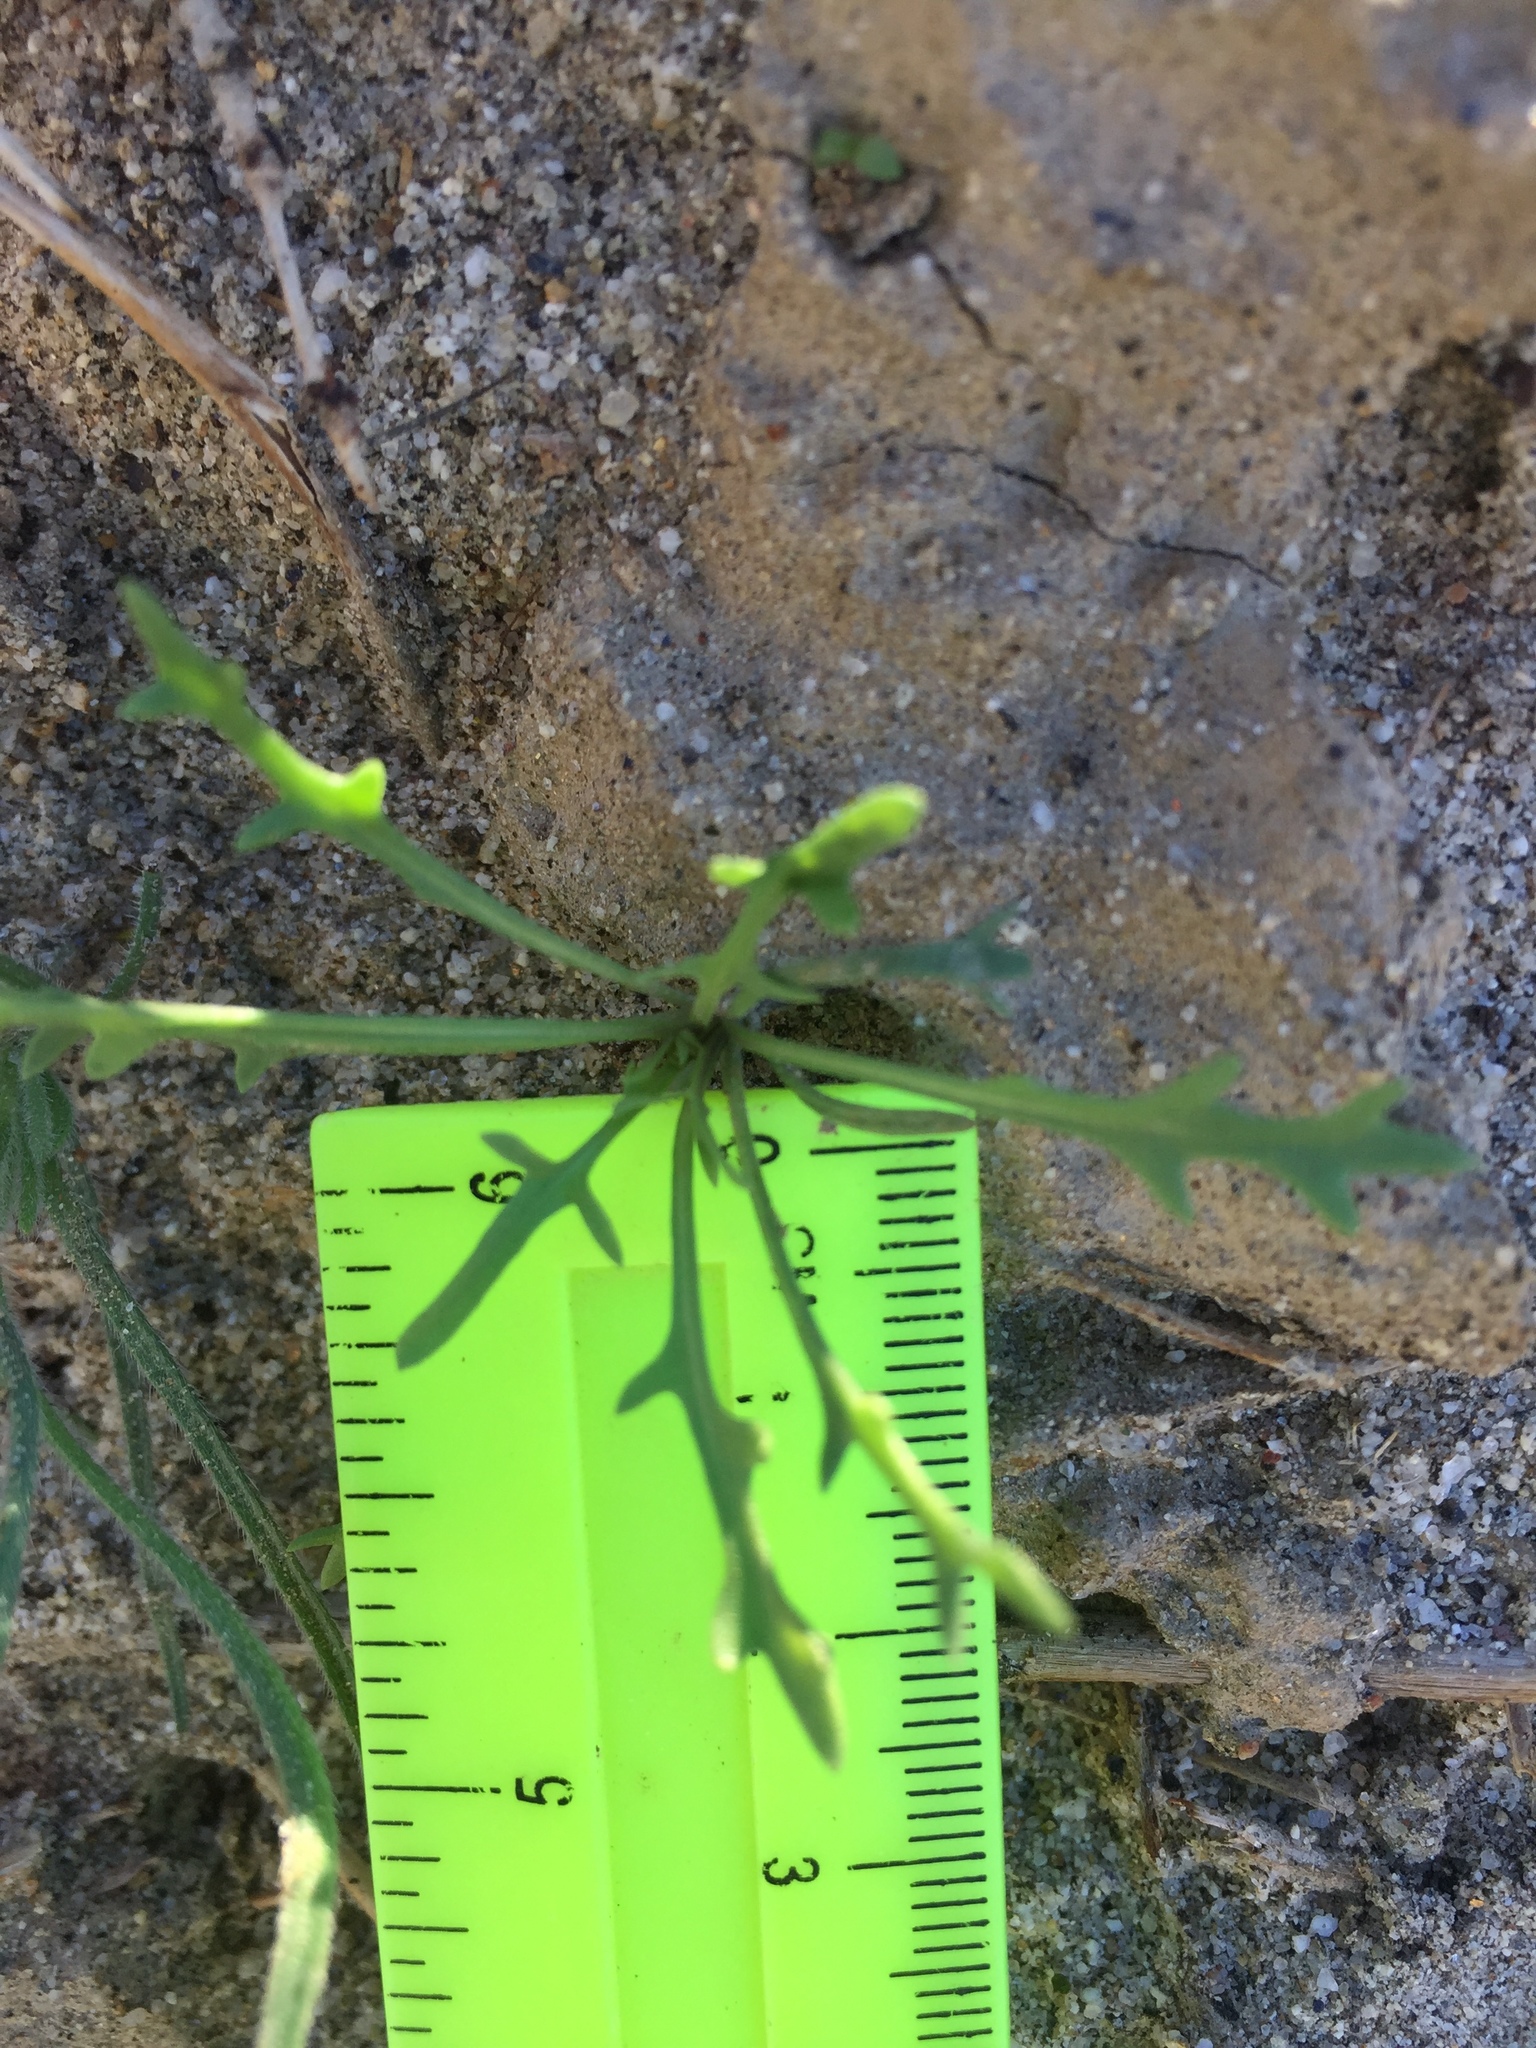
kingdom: Plantae
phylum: Tracheophyta
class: Magnoliopsida
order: Brassicales
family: Brassicaceae
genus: Streptanthus
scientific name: Streptanthus longirostris
